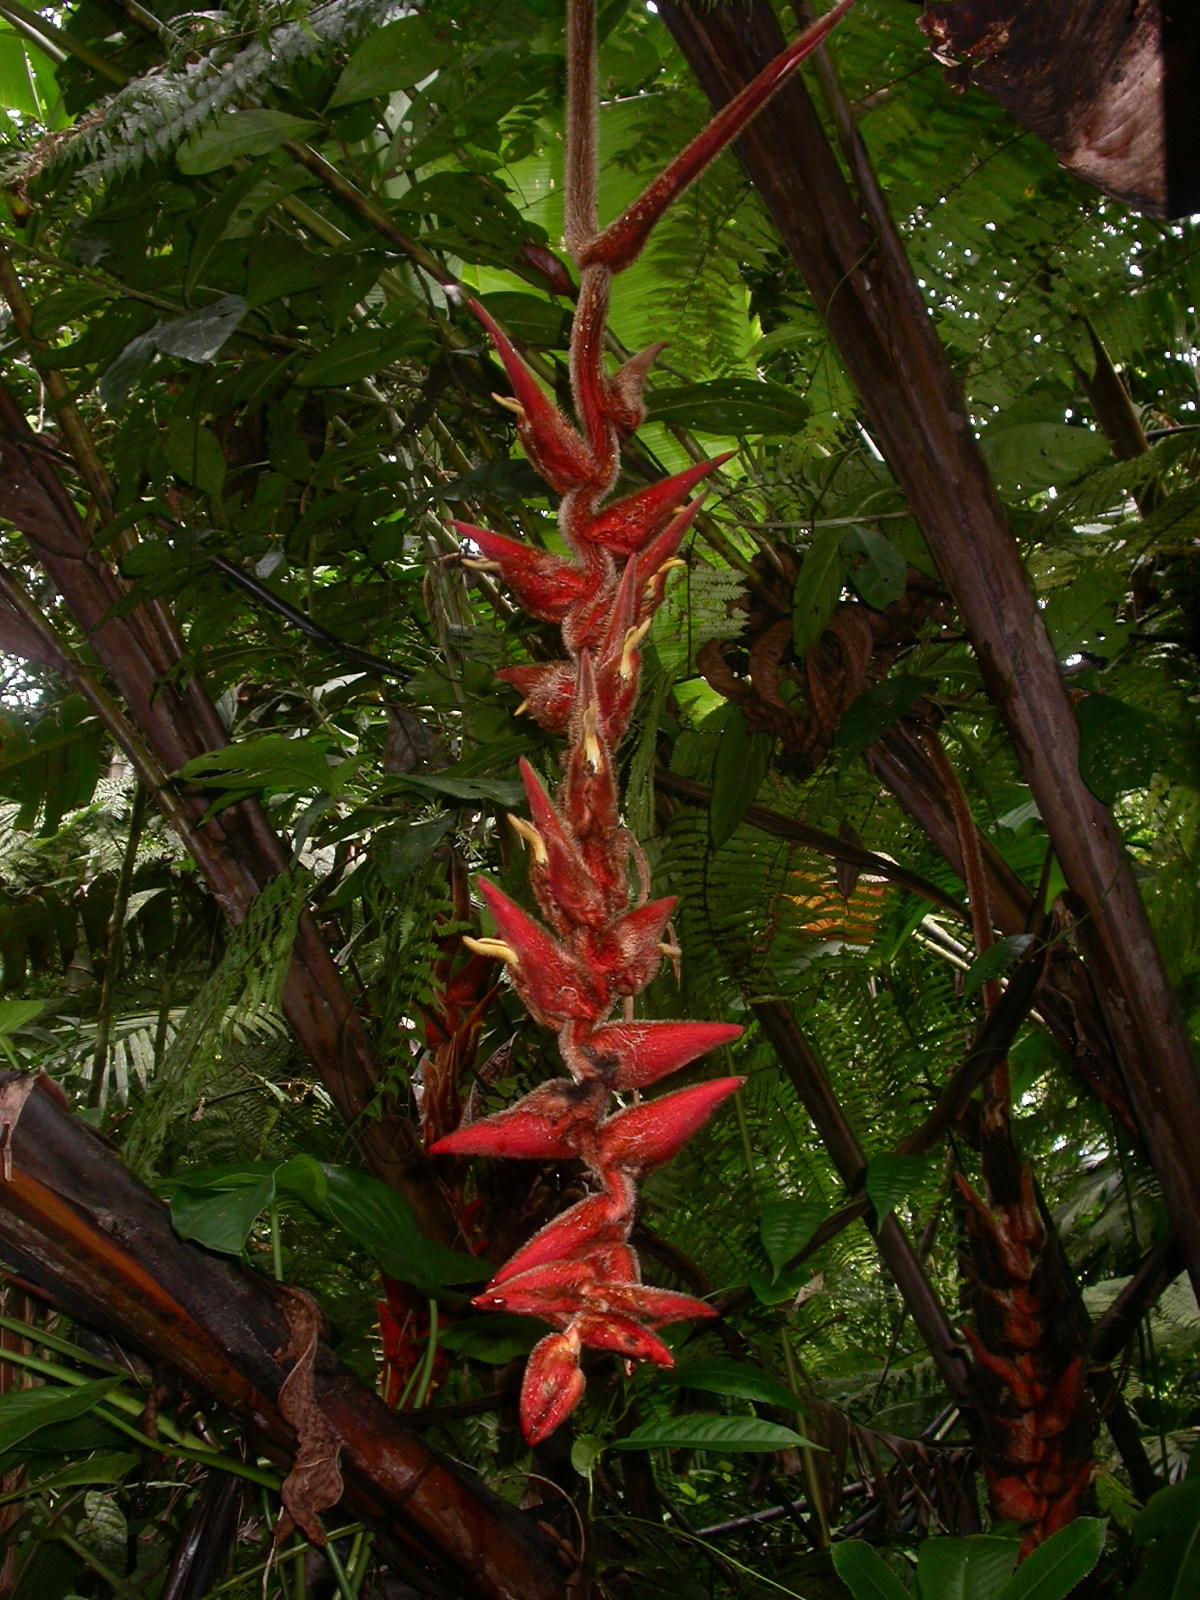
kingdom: Plantae
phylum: Tracheophyta
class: Liliopsida
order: Zingiberales
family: Heliconiaceae
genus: Heliconia
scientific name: Heliconia danielsiana
